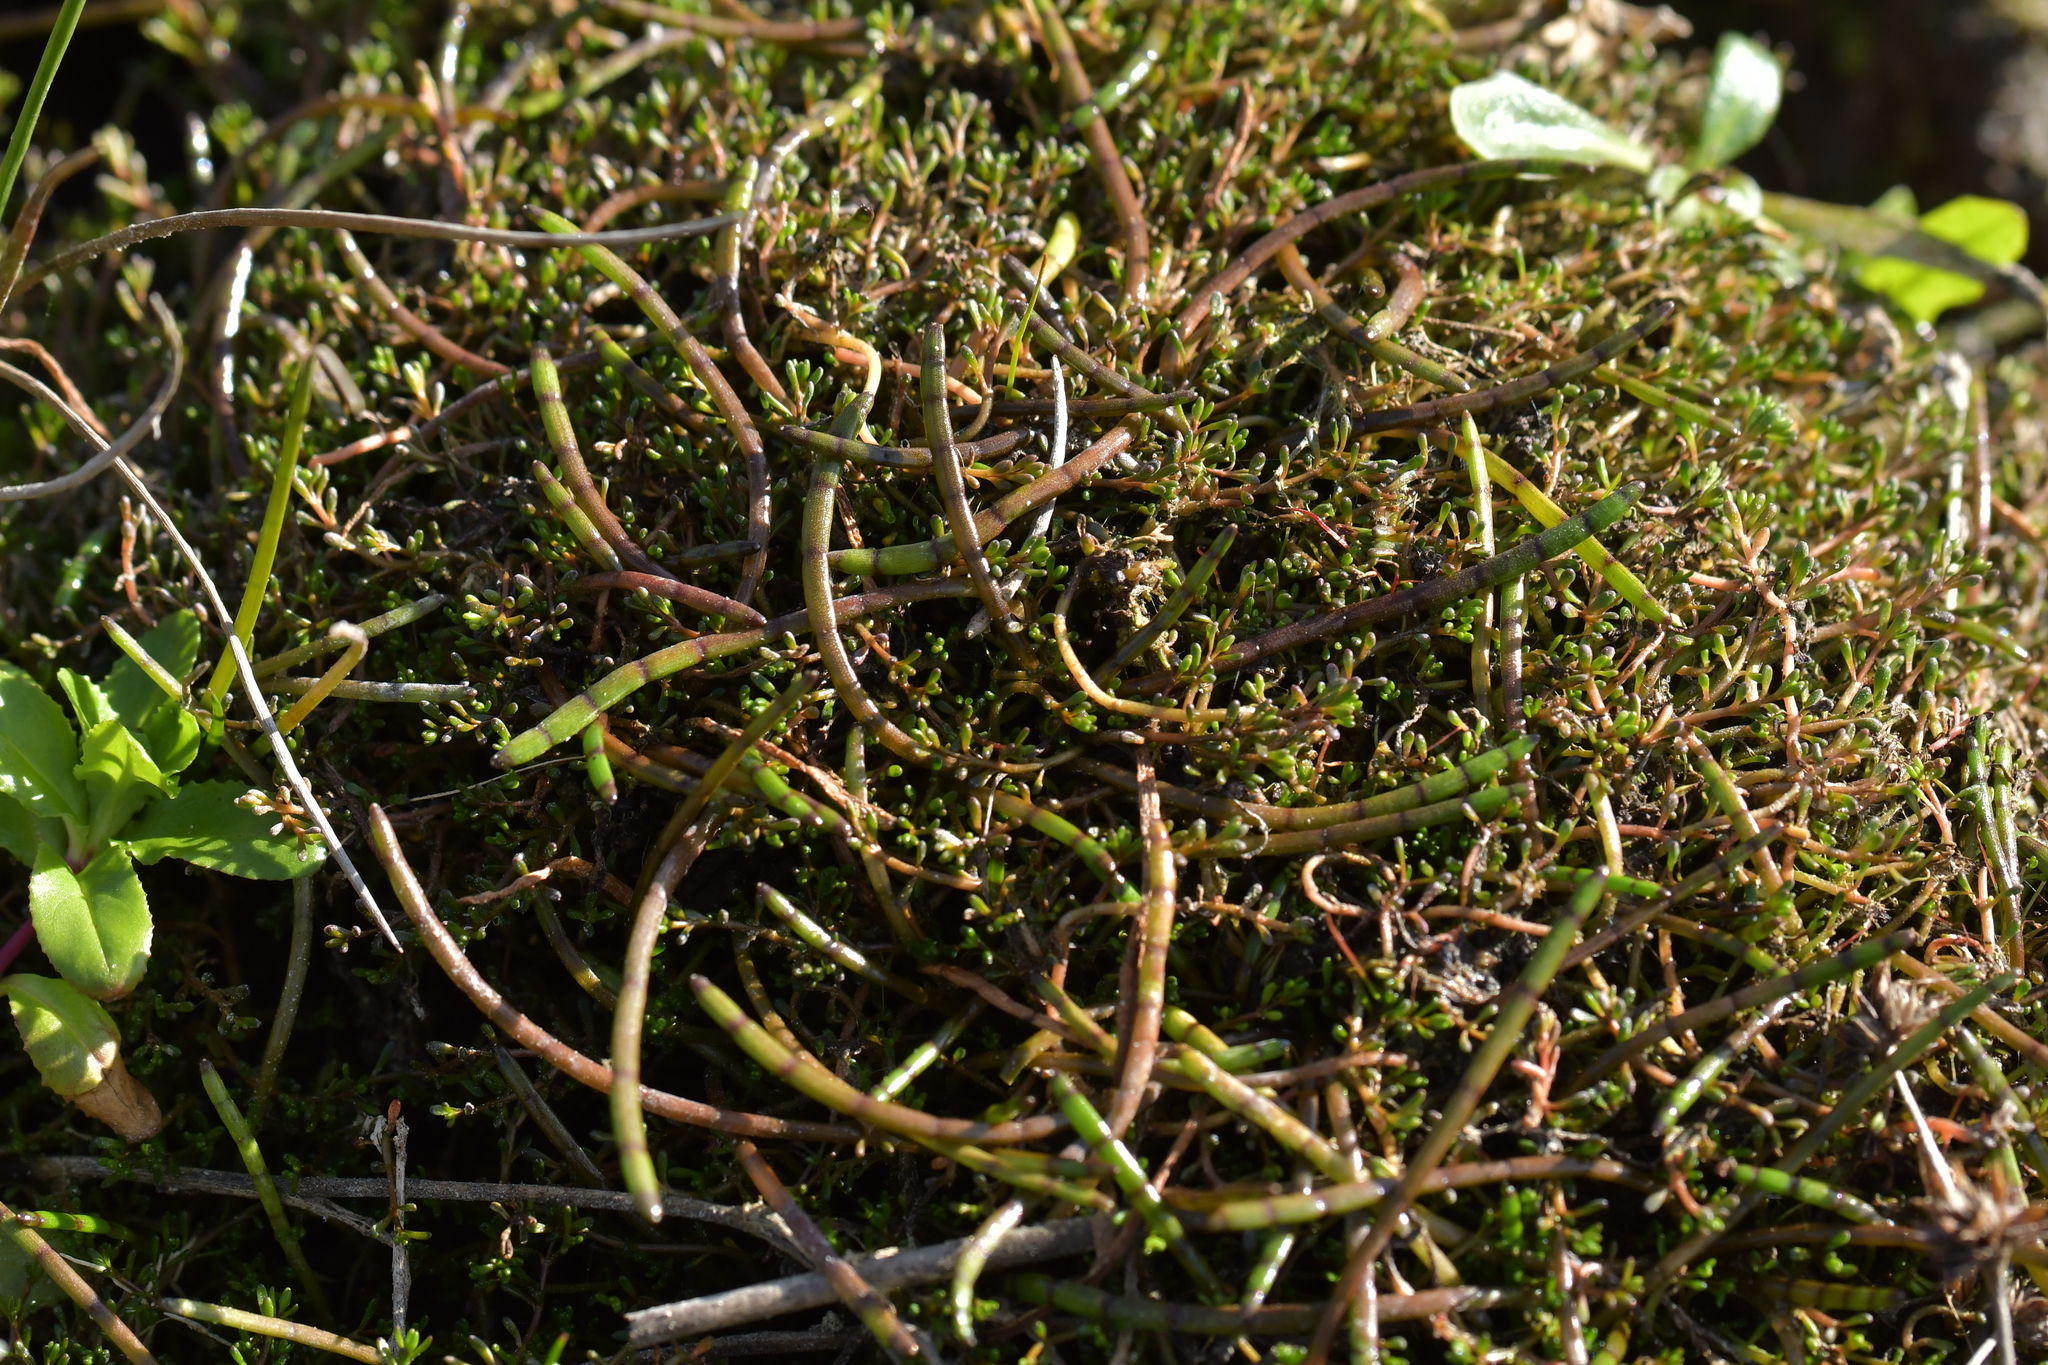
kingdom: Plantae
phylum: Tracheophyta
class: Magnoliopsida
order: Apiales
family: Apiaceae
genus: Lilaeopsis
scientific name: Lilaeopsis novae-zelandiae
